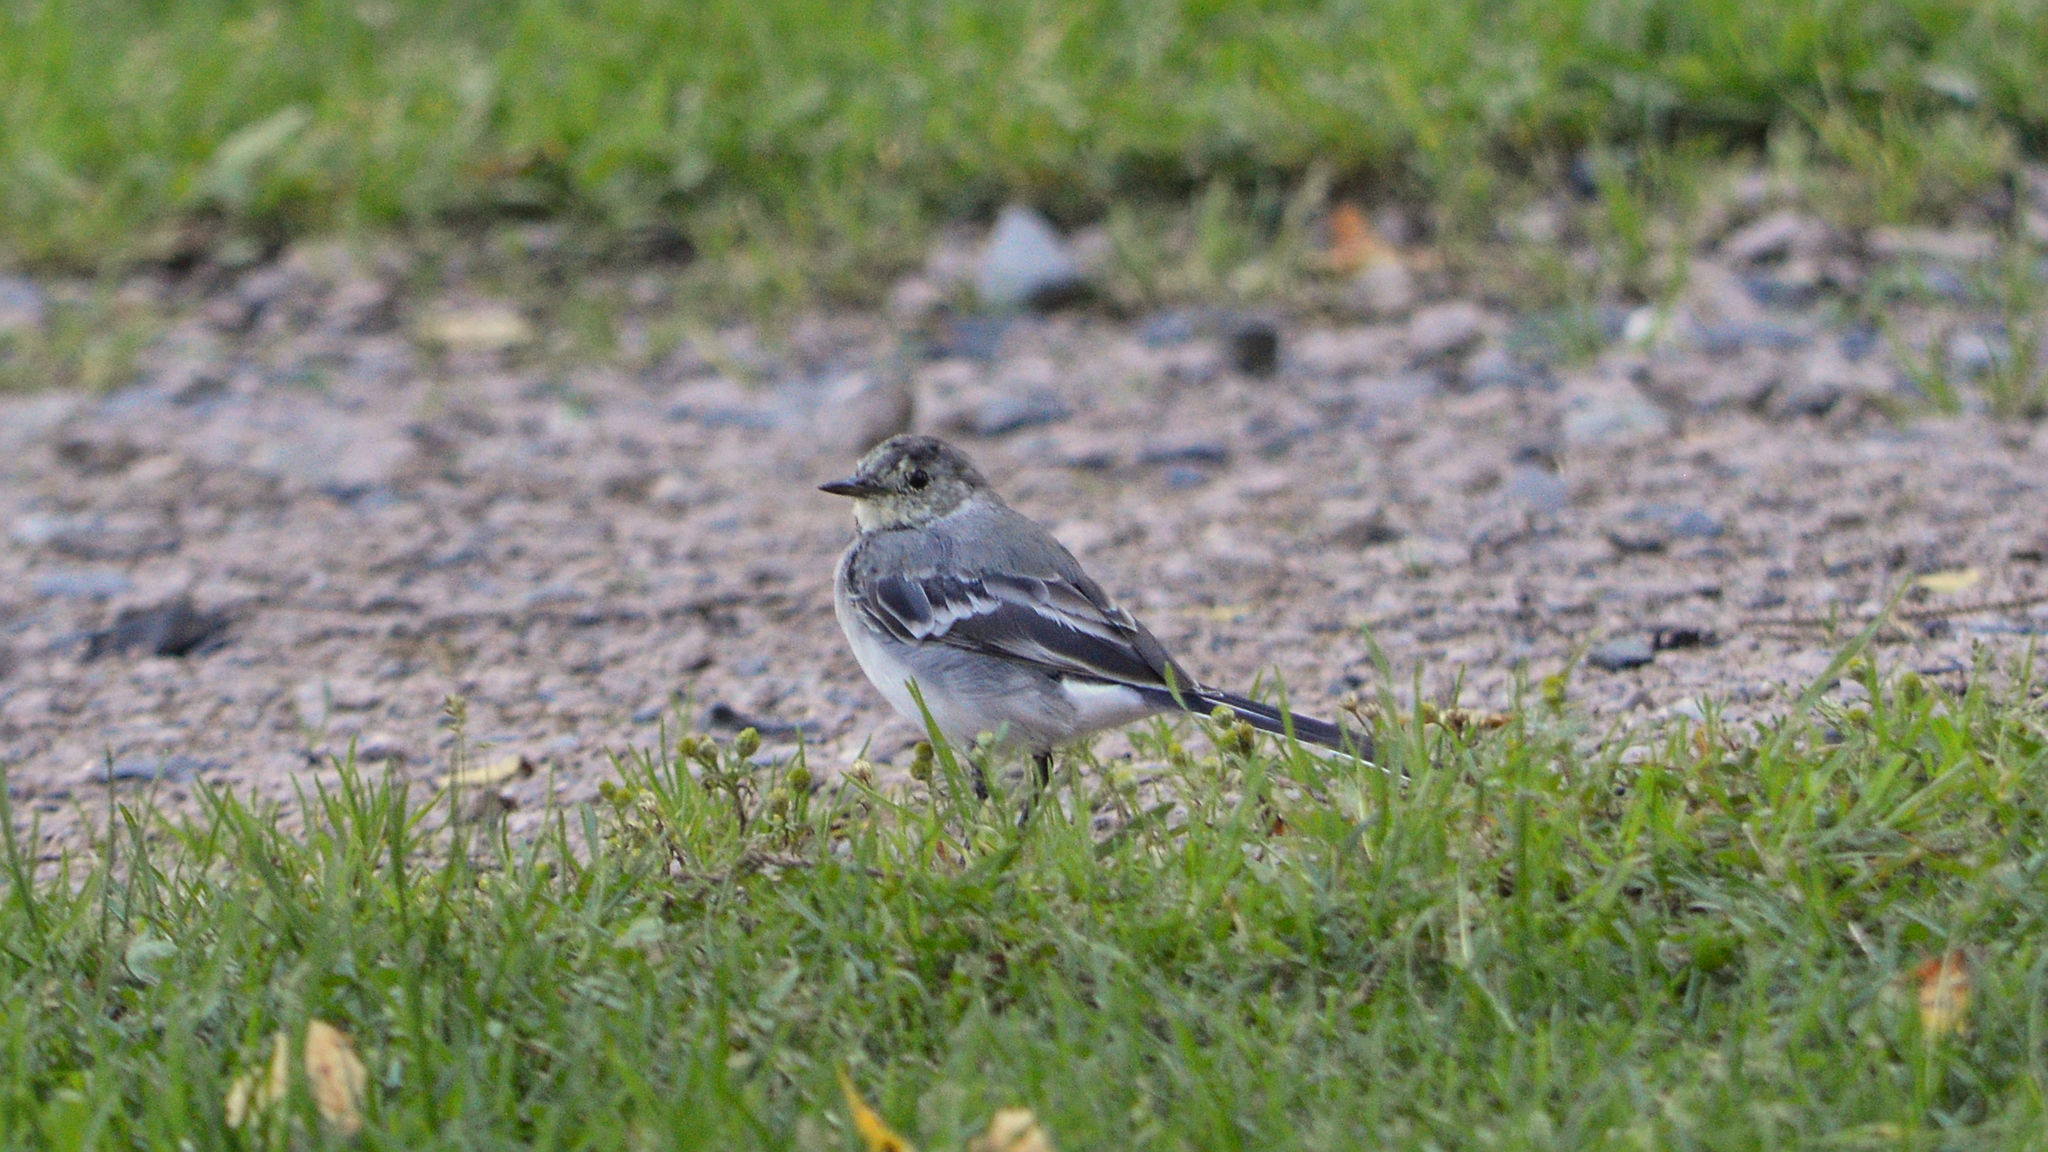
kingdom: Animalia
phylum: Chordata
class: Aves
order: Passeriformes
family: Motacillidae
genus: Motacilla
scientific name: Motacilla alba
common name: White wagtail
